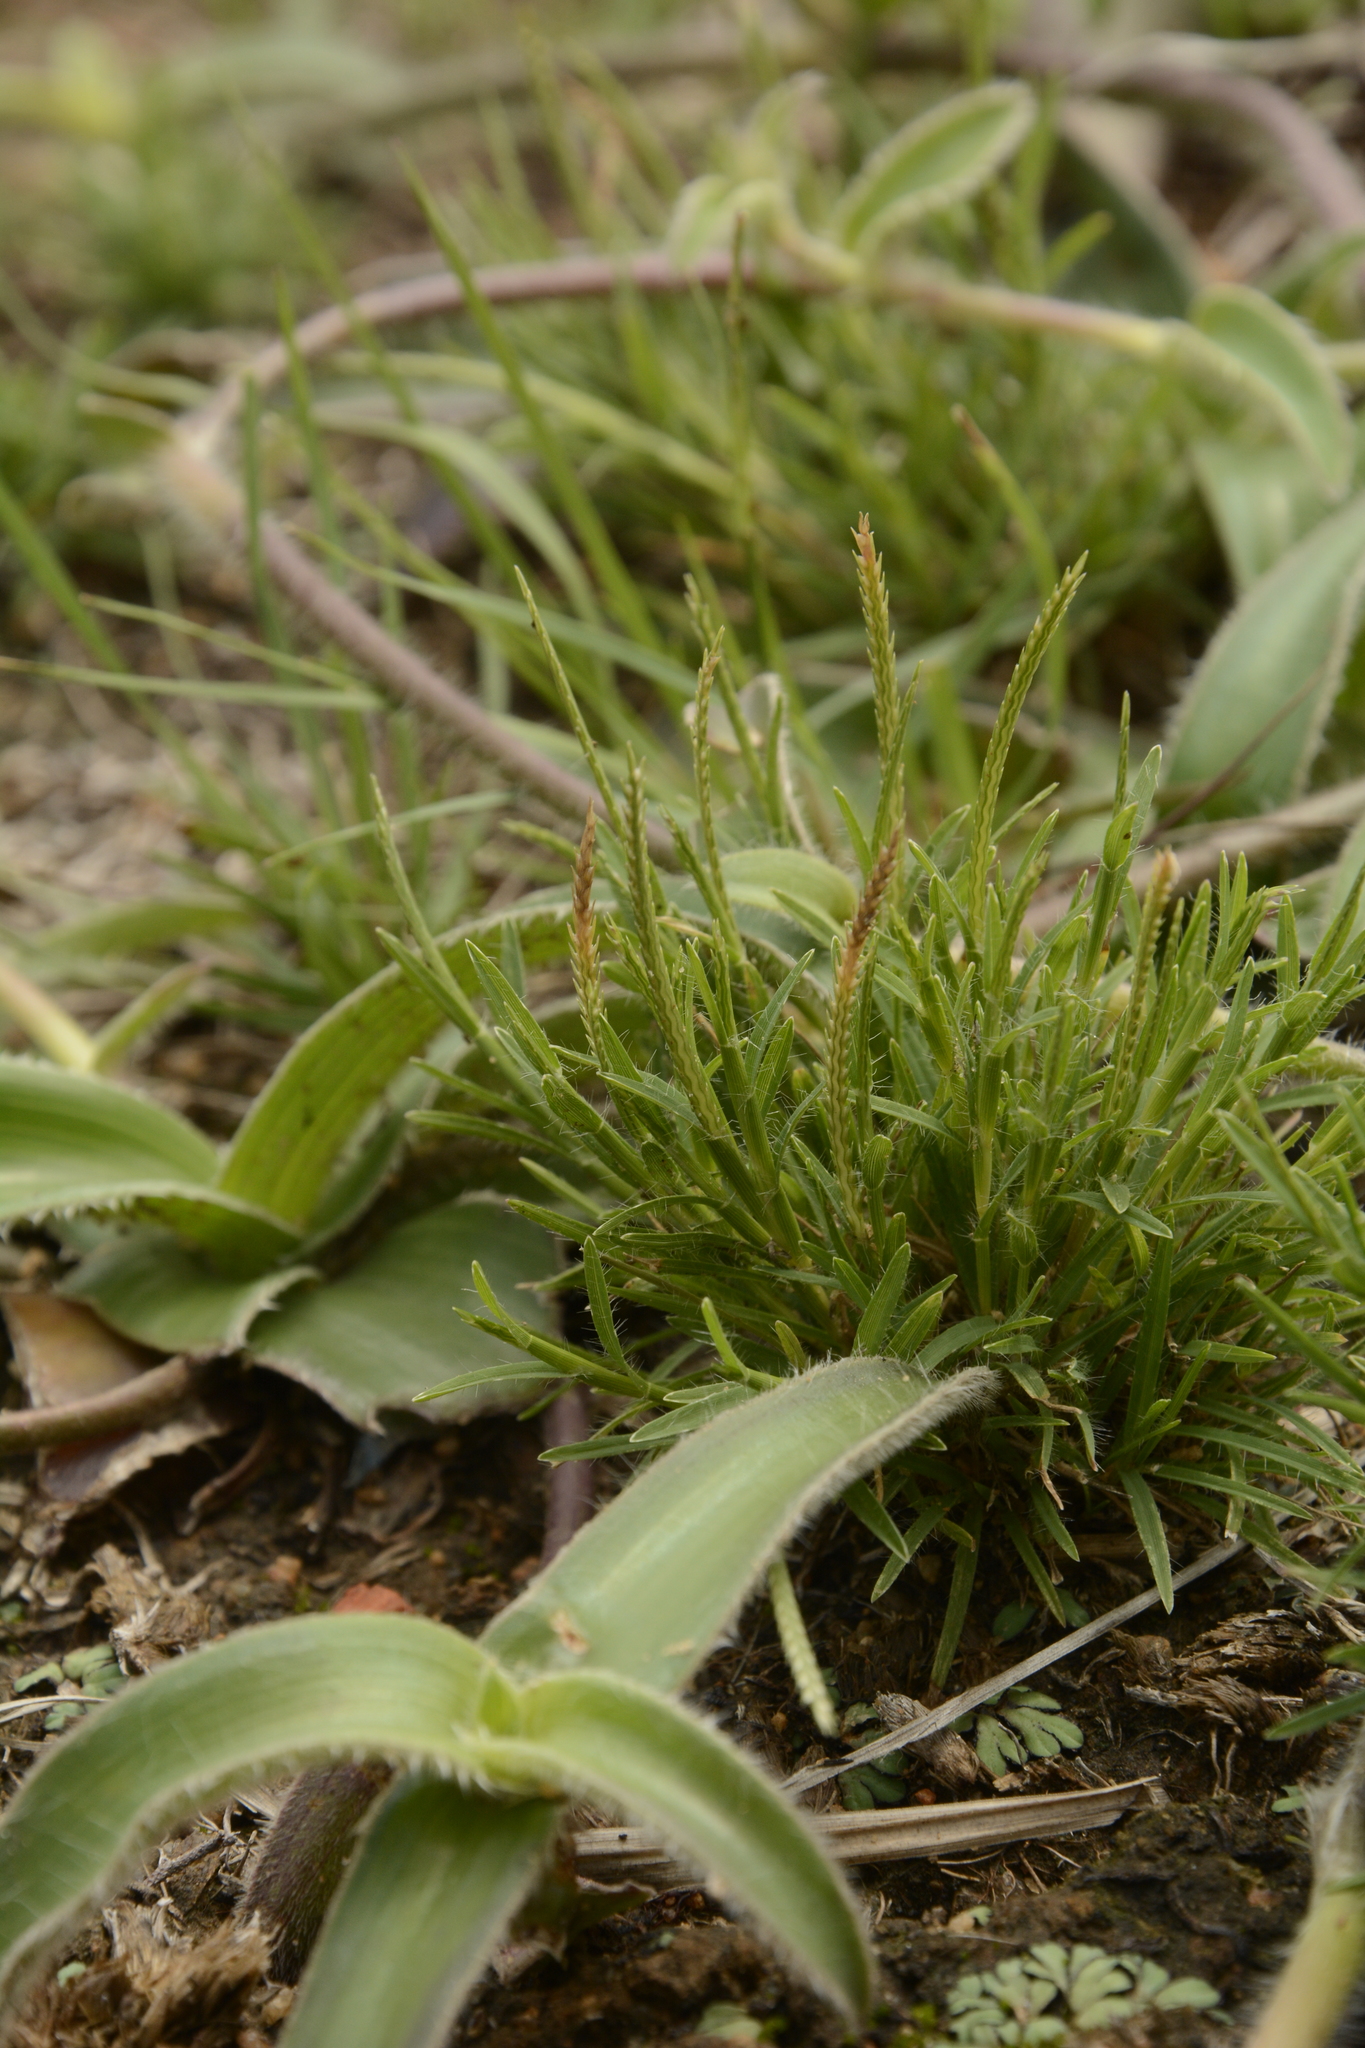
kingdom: Plantae
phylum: Tracheophyta
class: Liliopsida
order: Poales
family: Poaceae
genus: Oropetium
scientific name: Oropetium thomaeum
